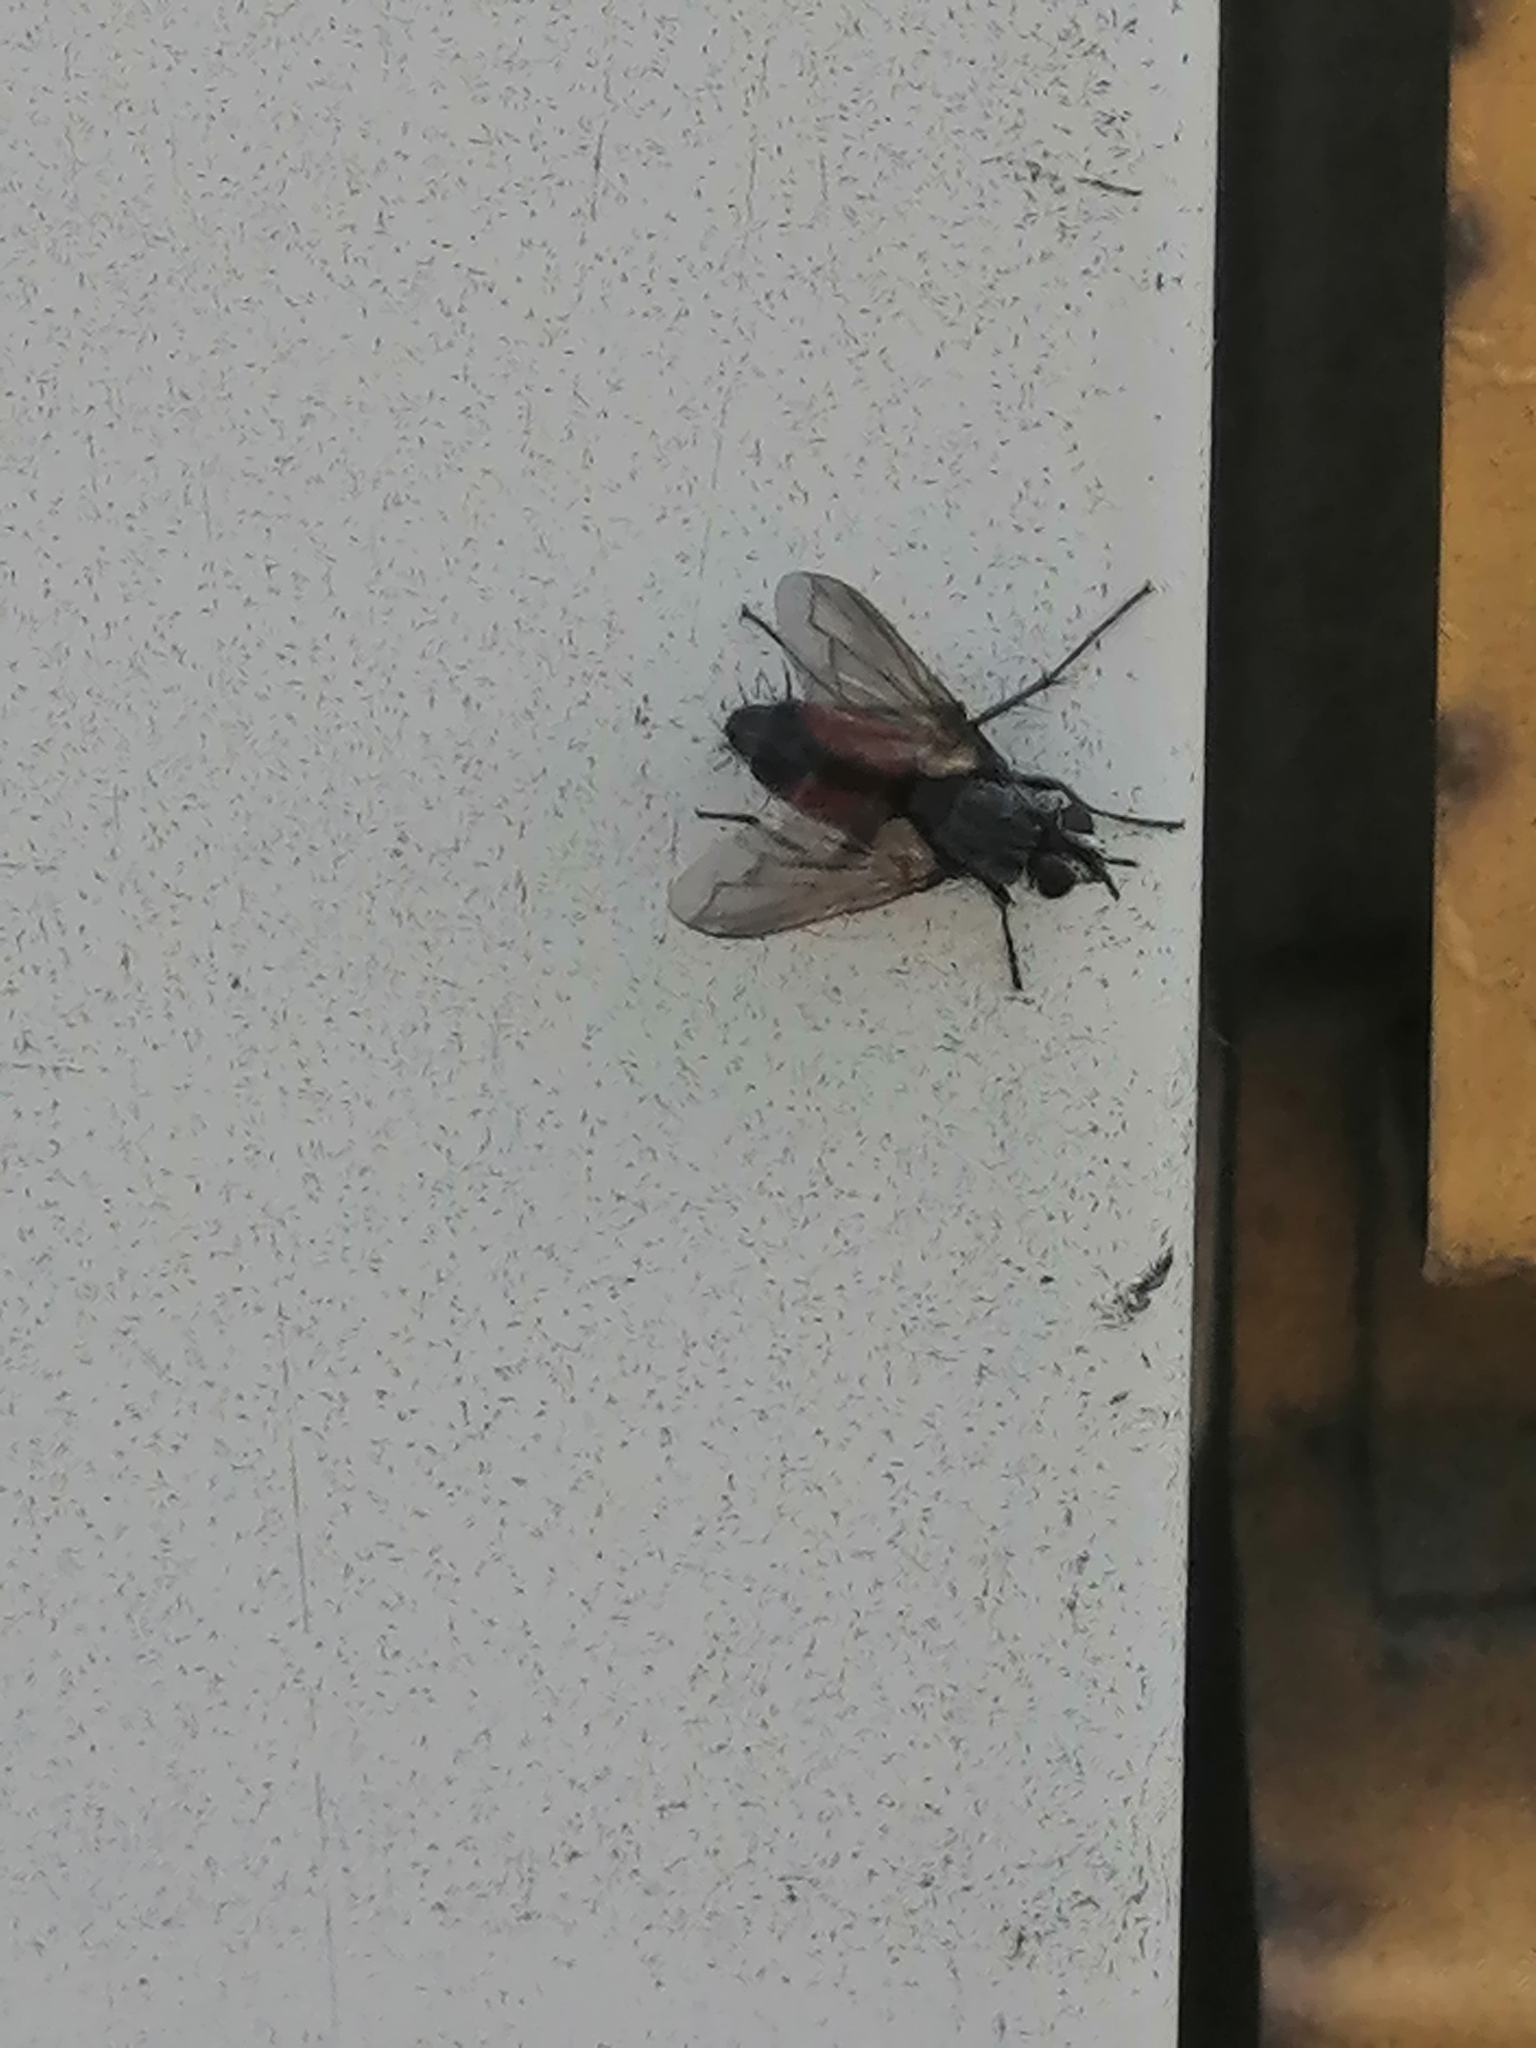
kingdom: Animalia
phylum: Arthropoda
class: Insecta
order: Diptera
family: Tachinidae
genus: Eriothrix
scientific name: Eriothrix rufomaculatus
